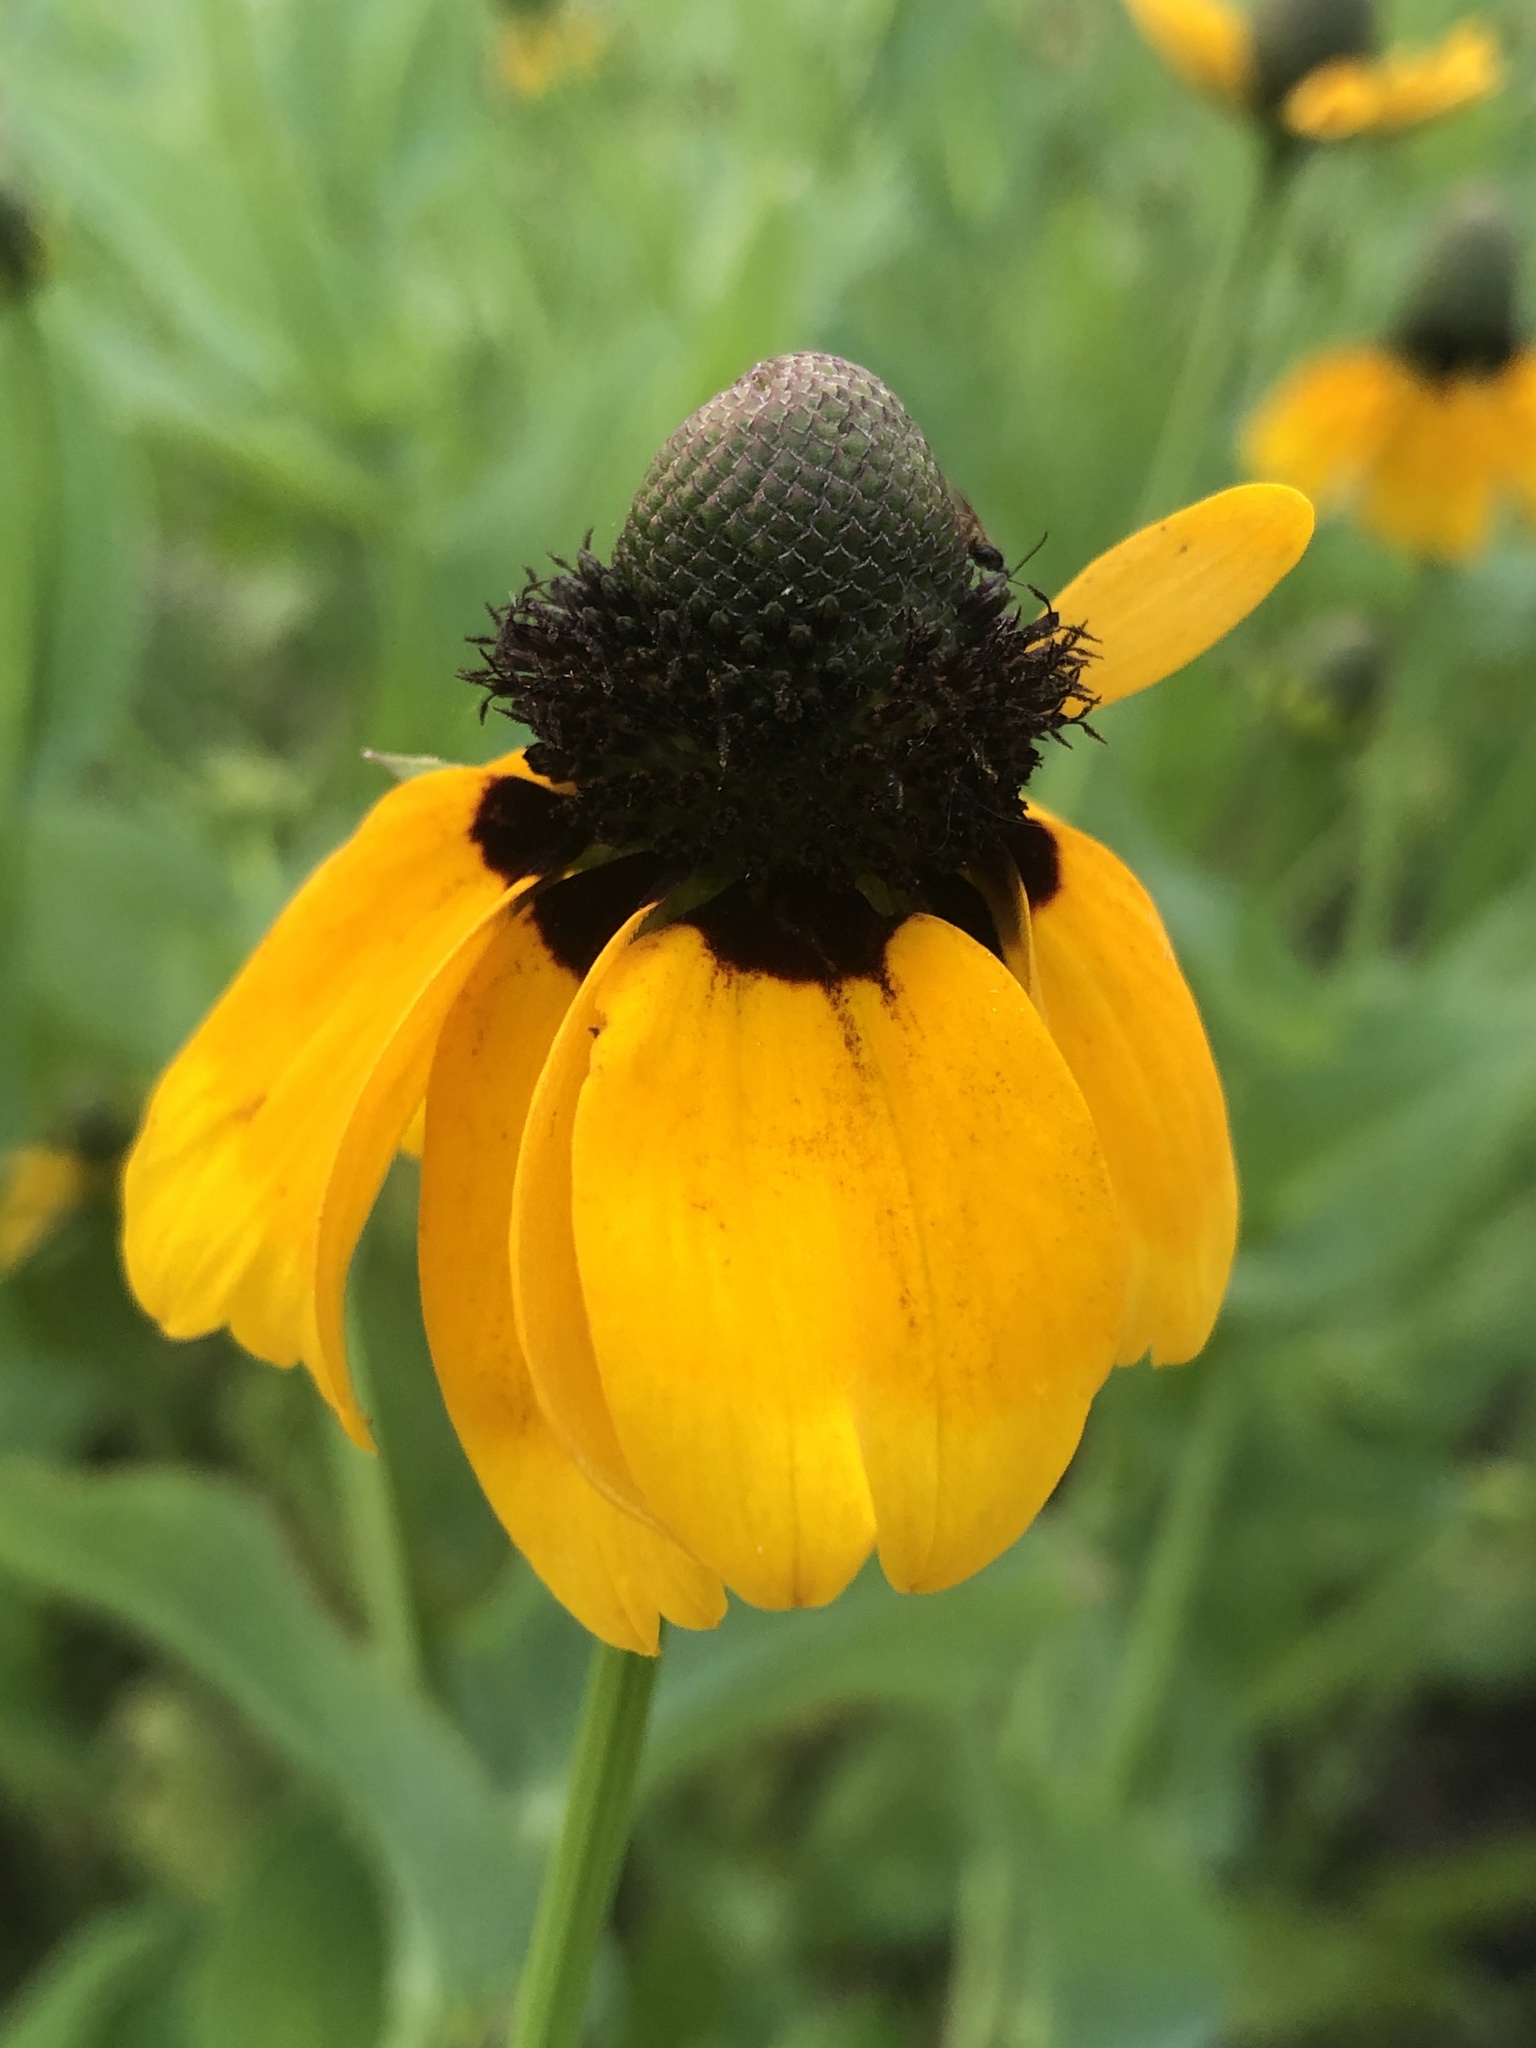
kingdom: Plantae
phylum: Tracheophyta
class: Magnoliopsida
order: Asterales
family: Asteraceae
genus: Rudbeckia
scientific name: Rudbeckia amplexicaulis
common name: Clasping-leaf coneflower
